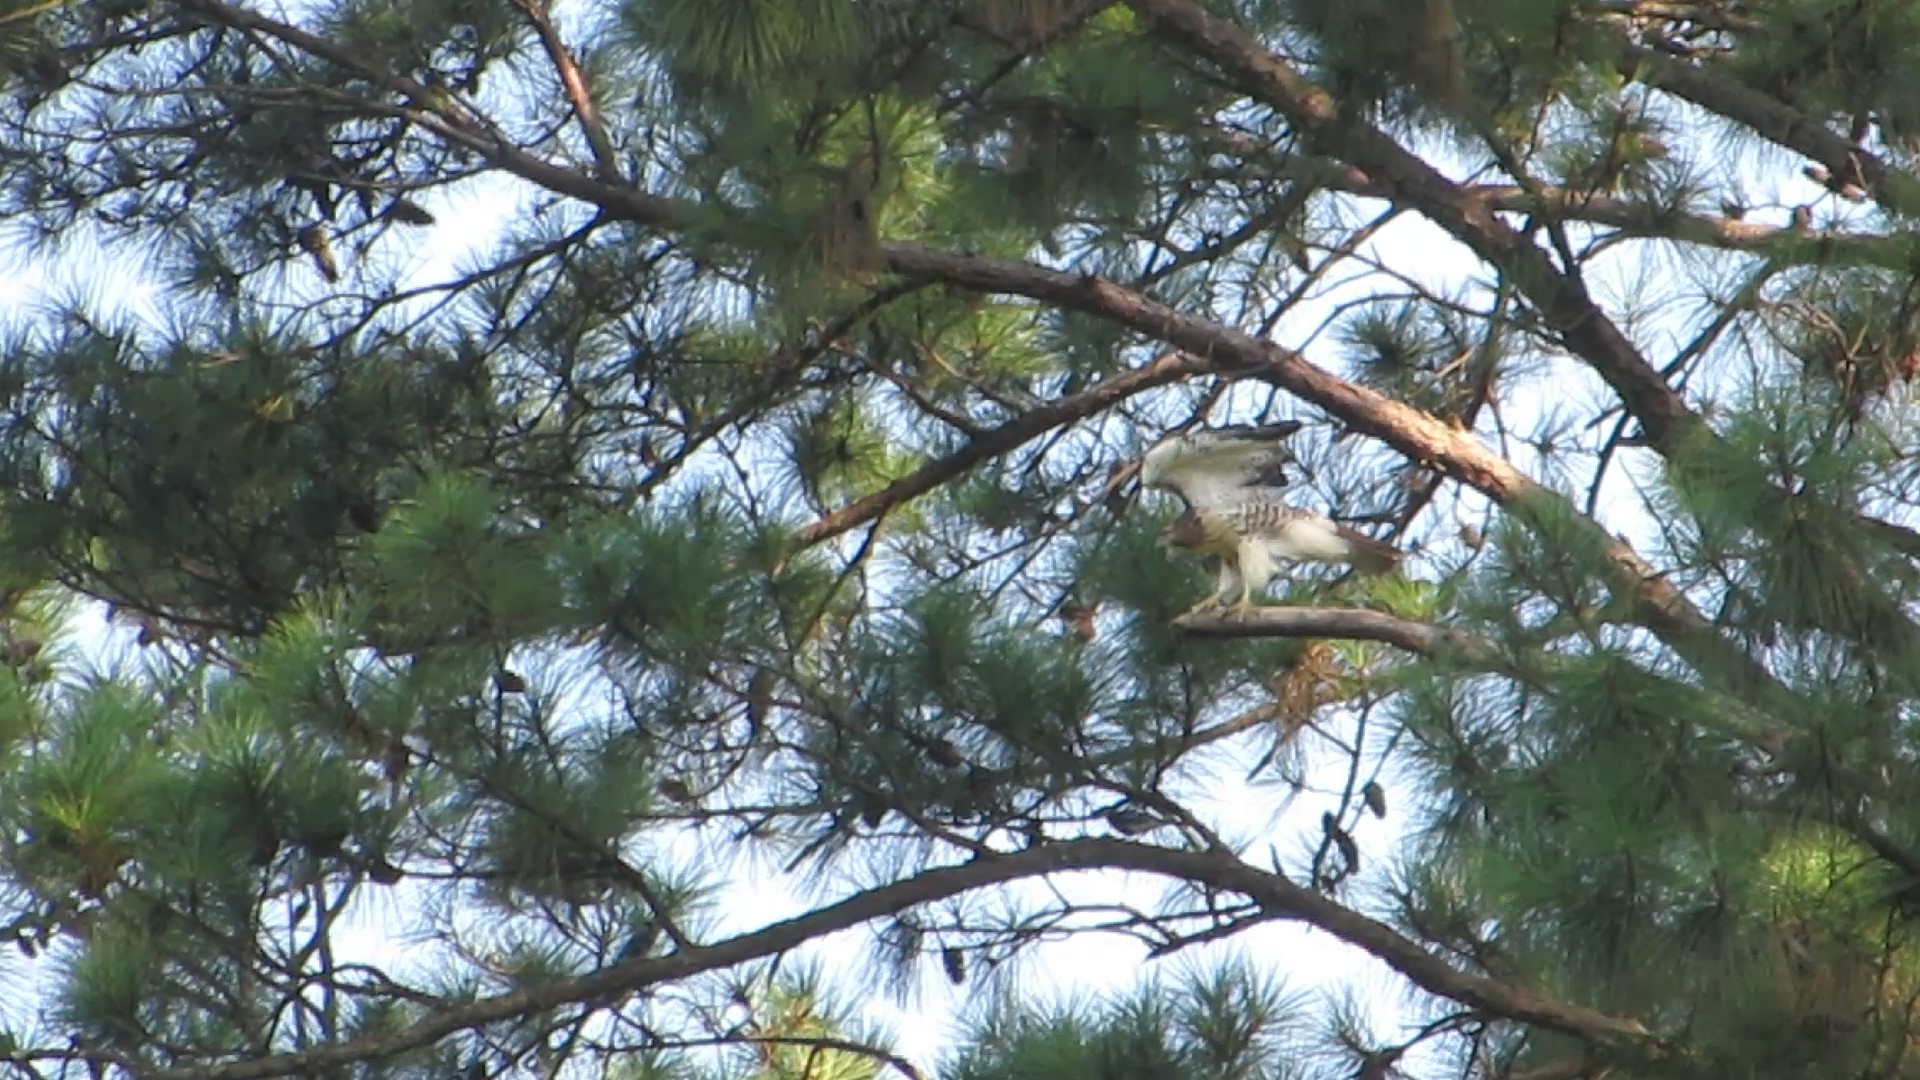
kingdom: Animalia
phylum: Chordata
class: Aves
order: Accipitriformes
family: Accipitridae
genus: Buteo
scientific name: Buteo jamaicensis
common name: Red-tailed hawk
